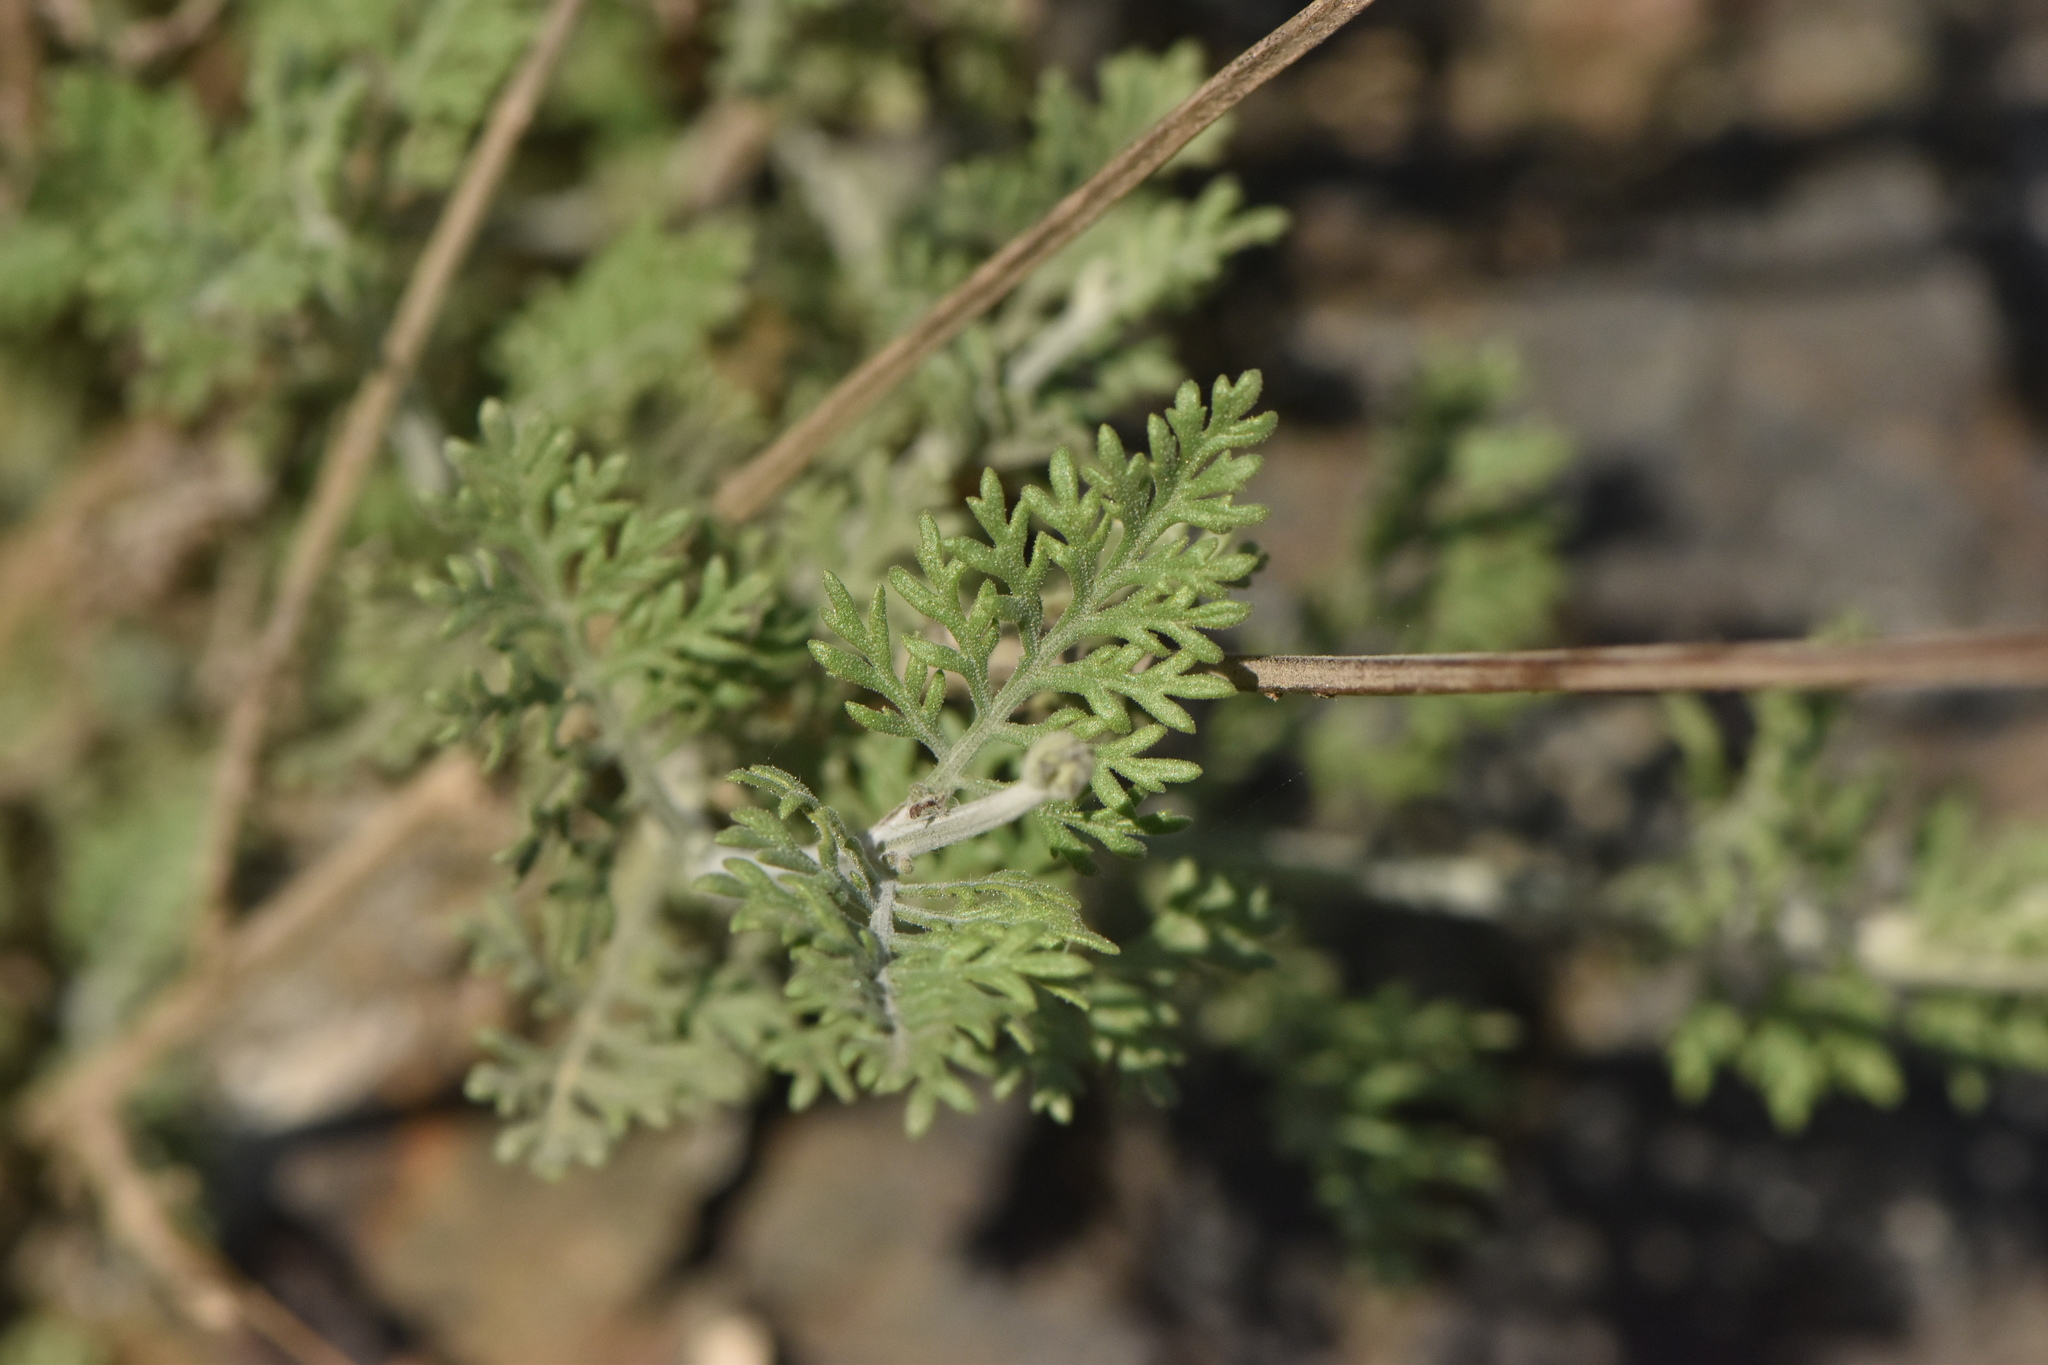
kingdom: Plantae
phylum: Tracheophyta
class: Magnoliopsida
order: Lamiales
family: Lamiaceae
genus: Lavandula
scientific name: Lavandula multifida
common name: Fern-leaf lavender
